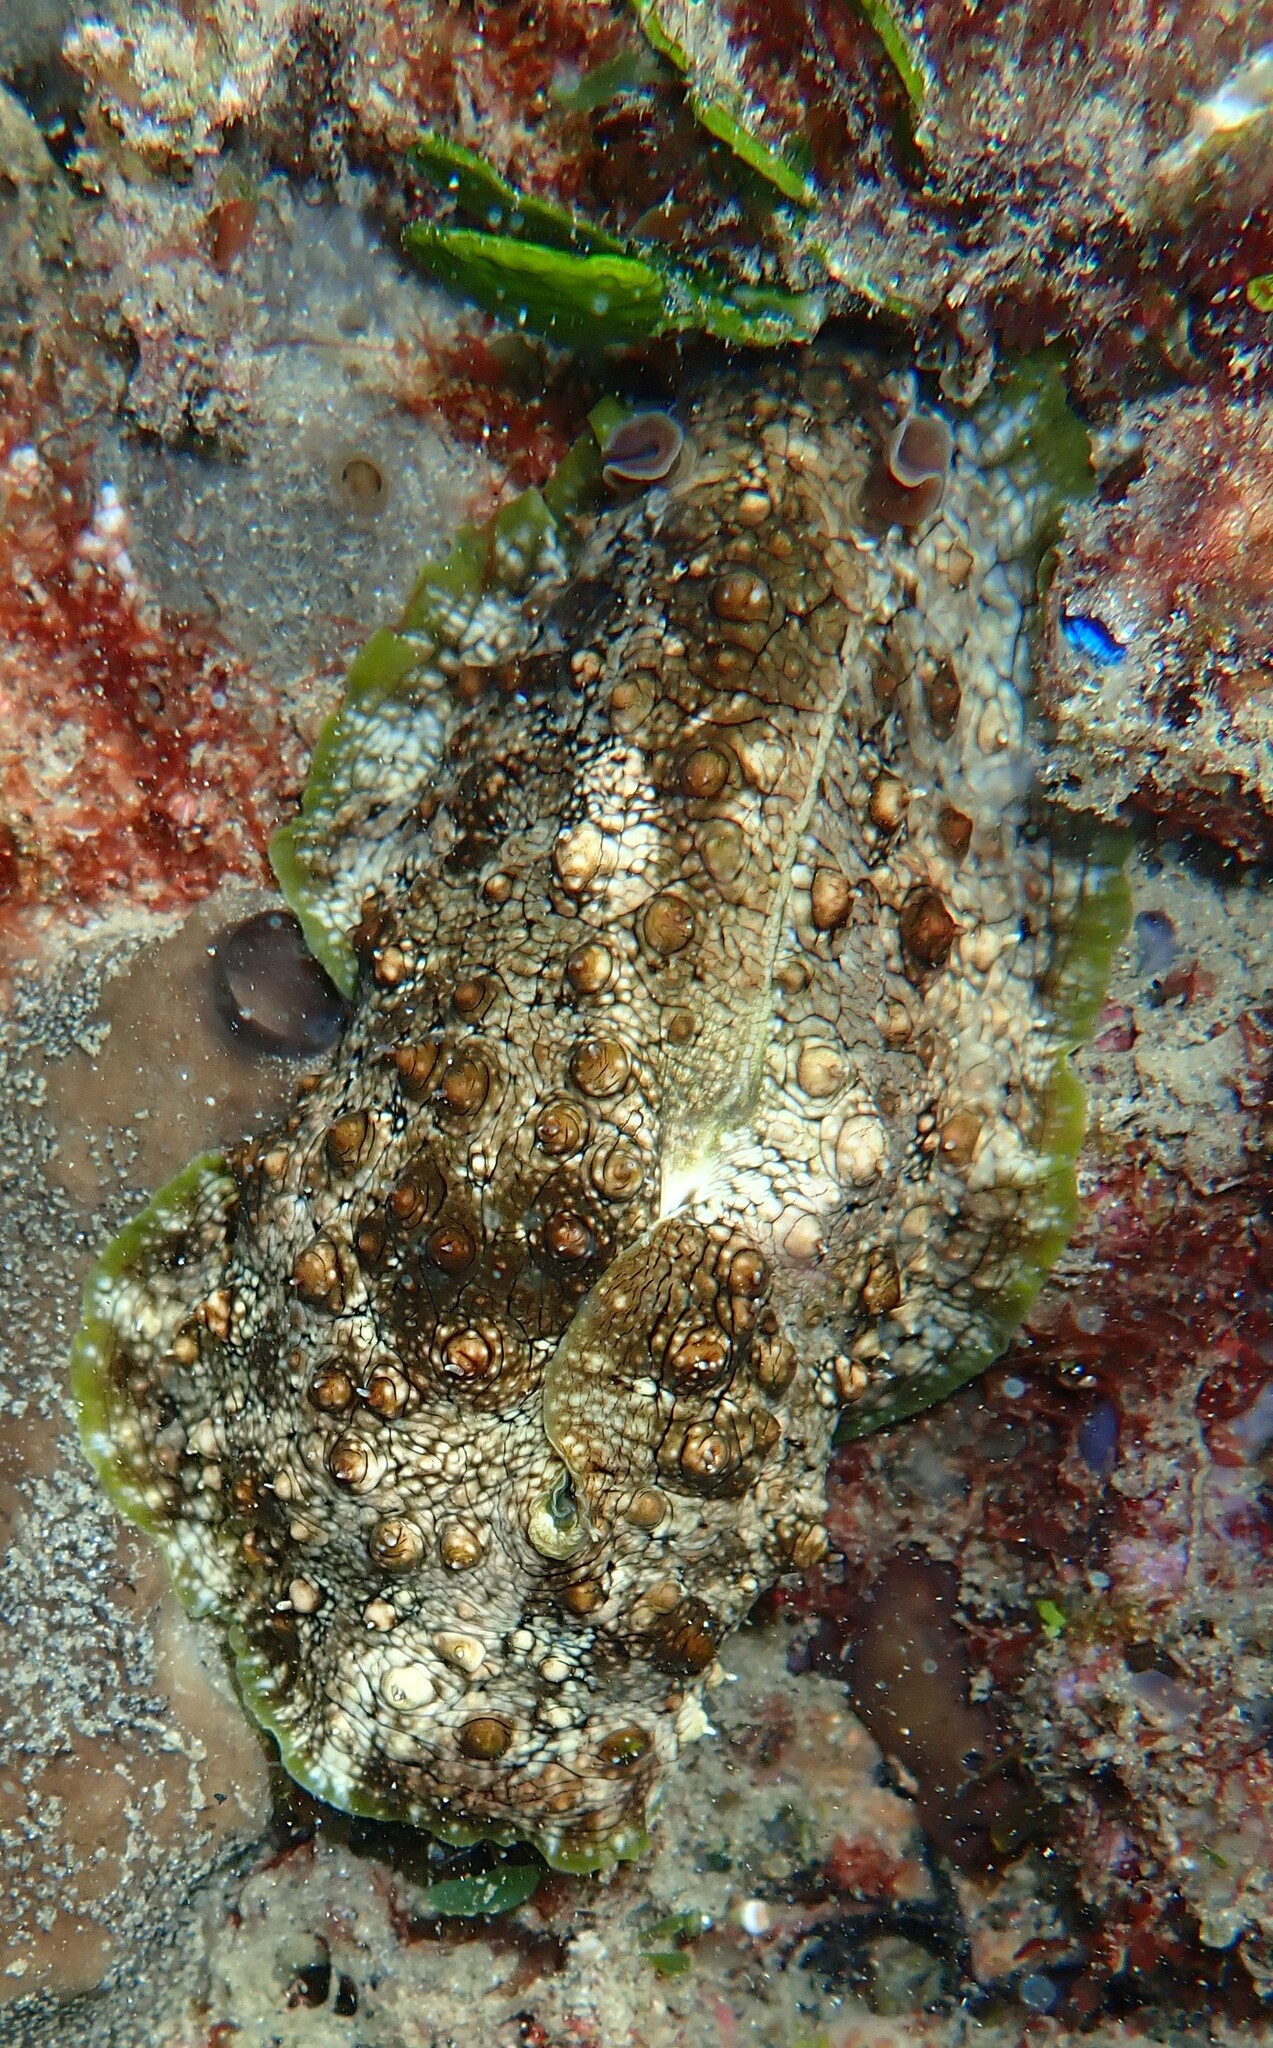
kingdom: Animalia
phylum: Mollusca
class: Gastropoda
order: Aplysiida
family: Aplysiidae
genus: Dolabrifera
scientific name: Dolabrifera brazieri
